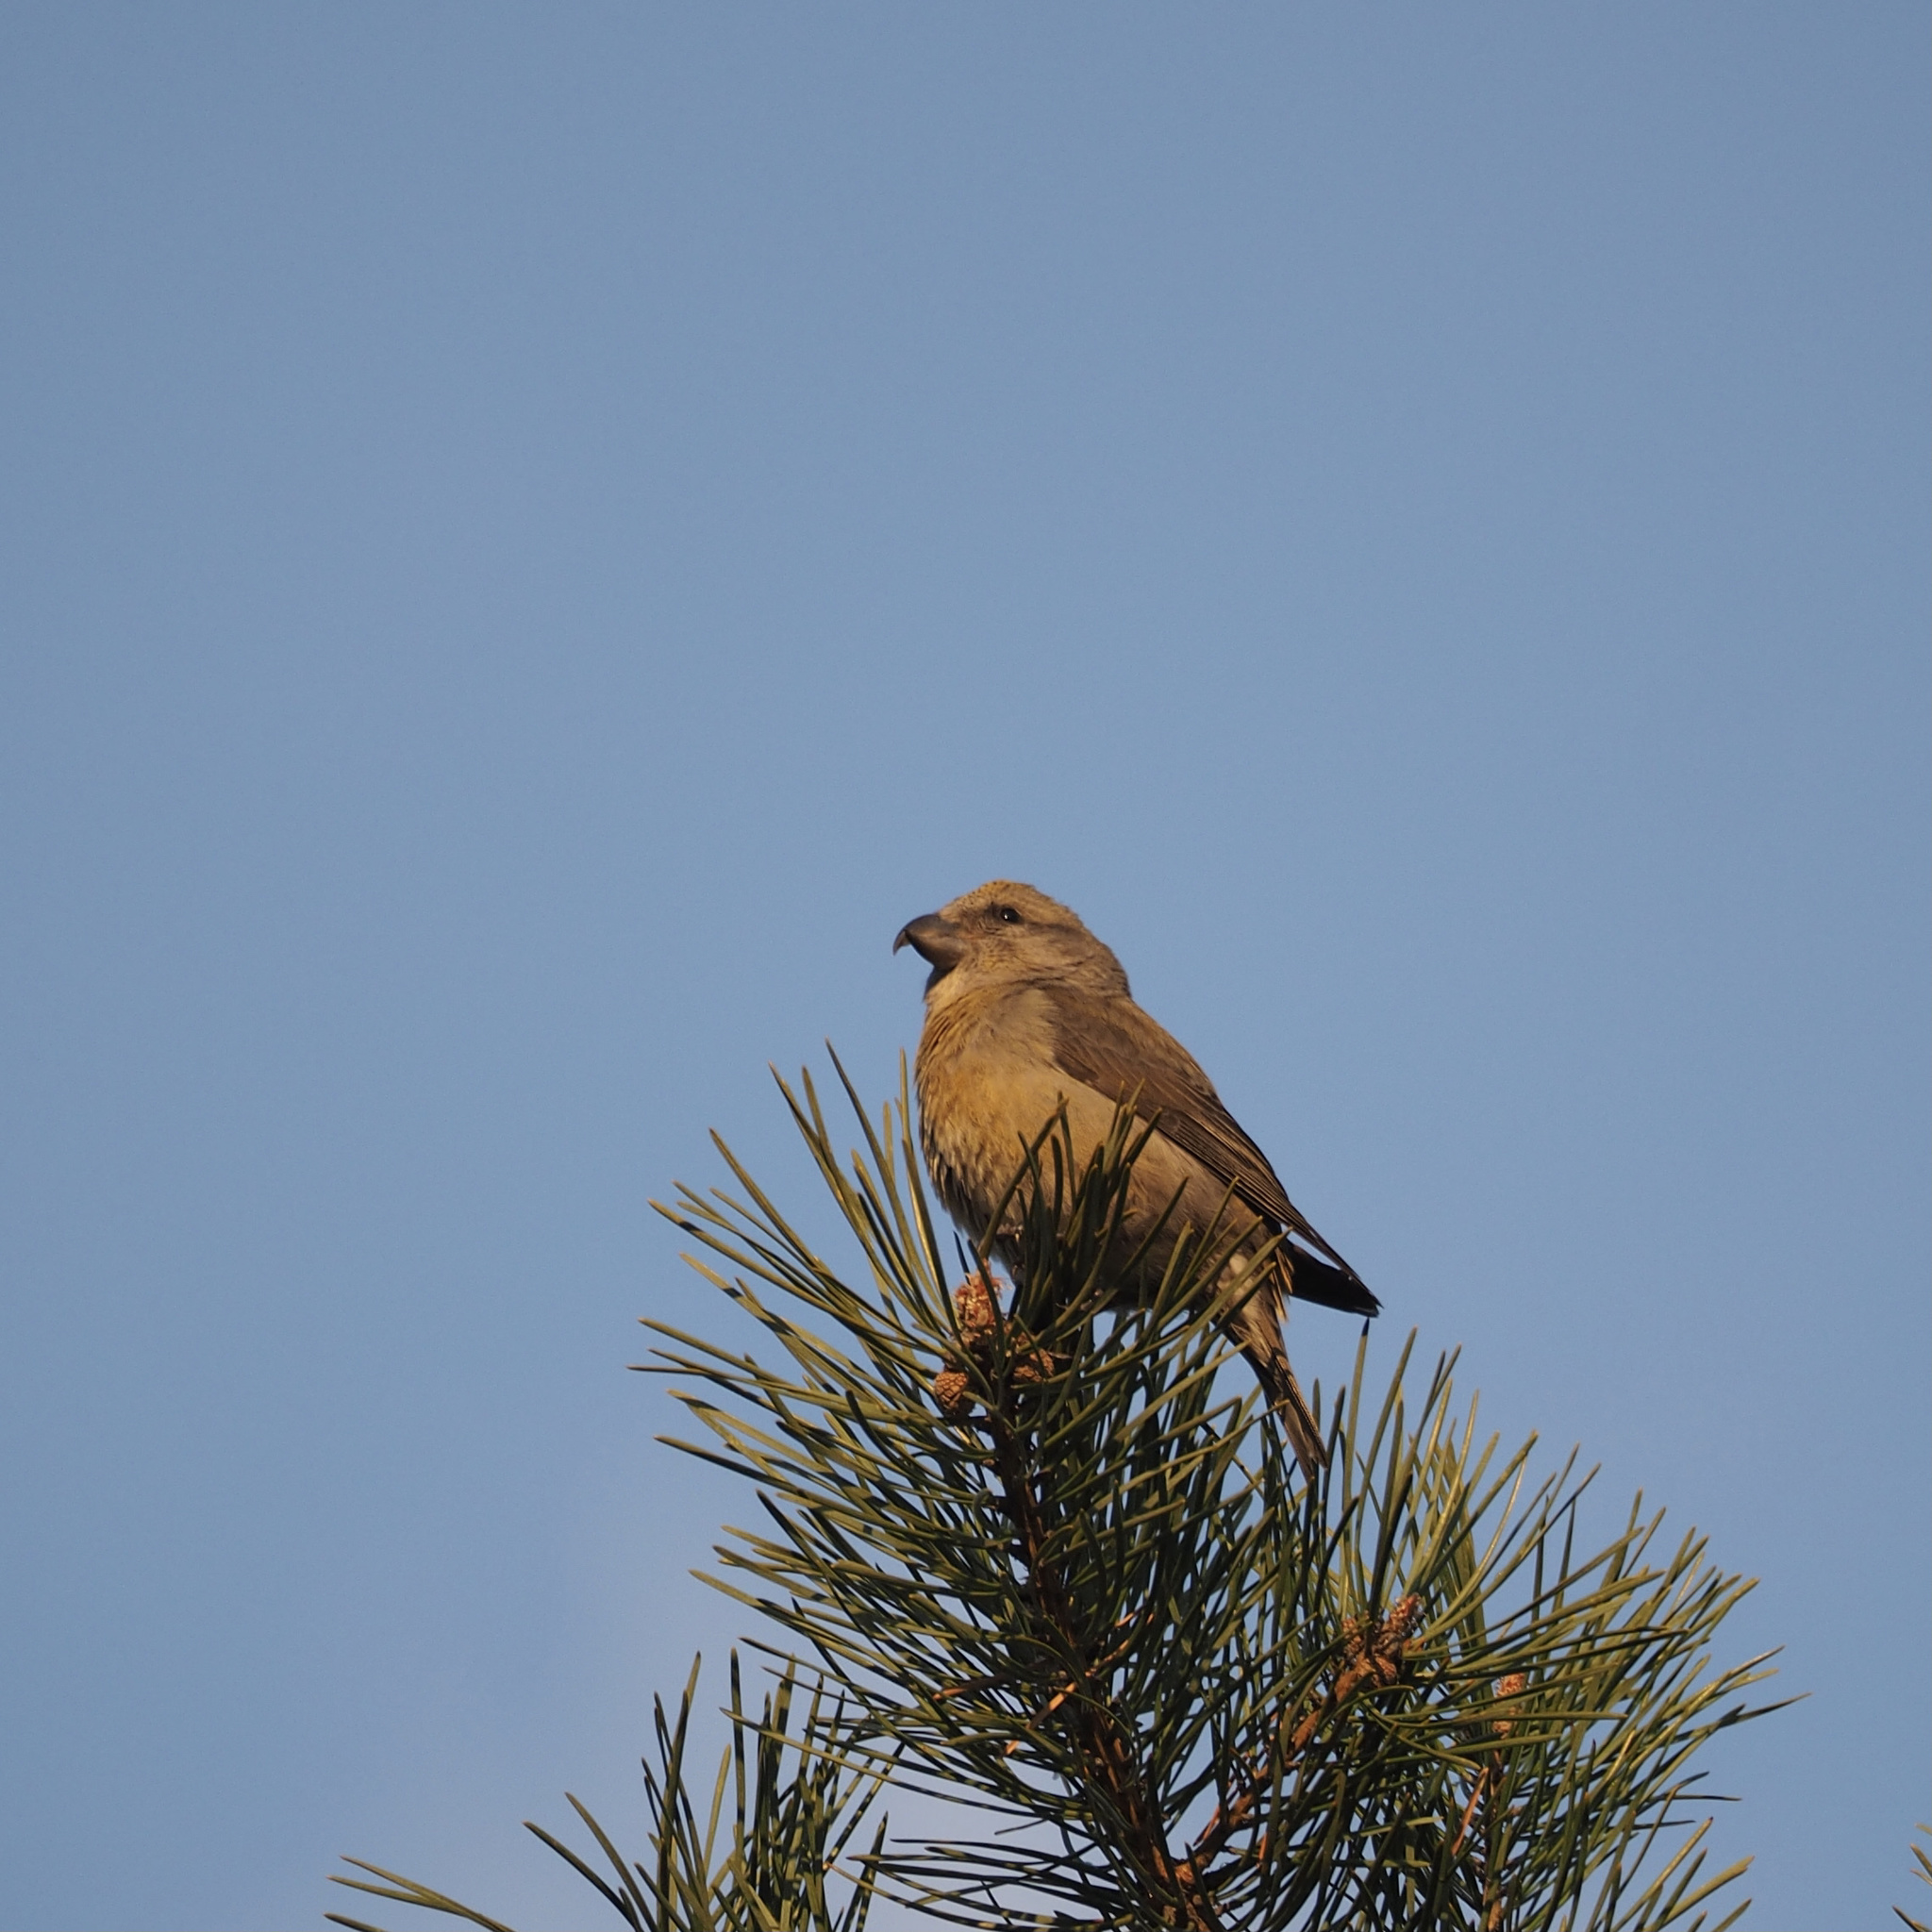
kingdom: Animalia
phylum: Chordata
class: Aves
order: Passeriformes
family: Fringillidae
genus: Loxia
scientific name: Loxia curvirostra
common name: Red crossbill
